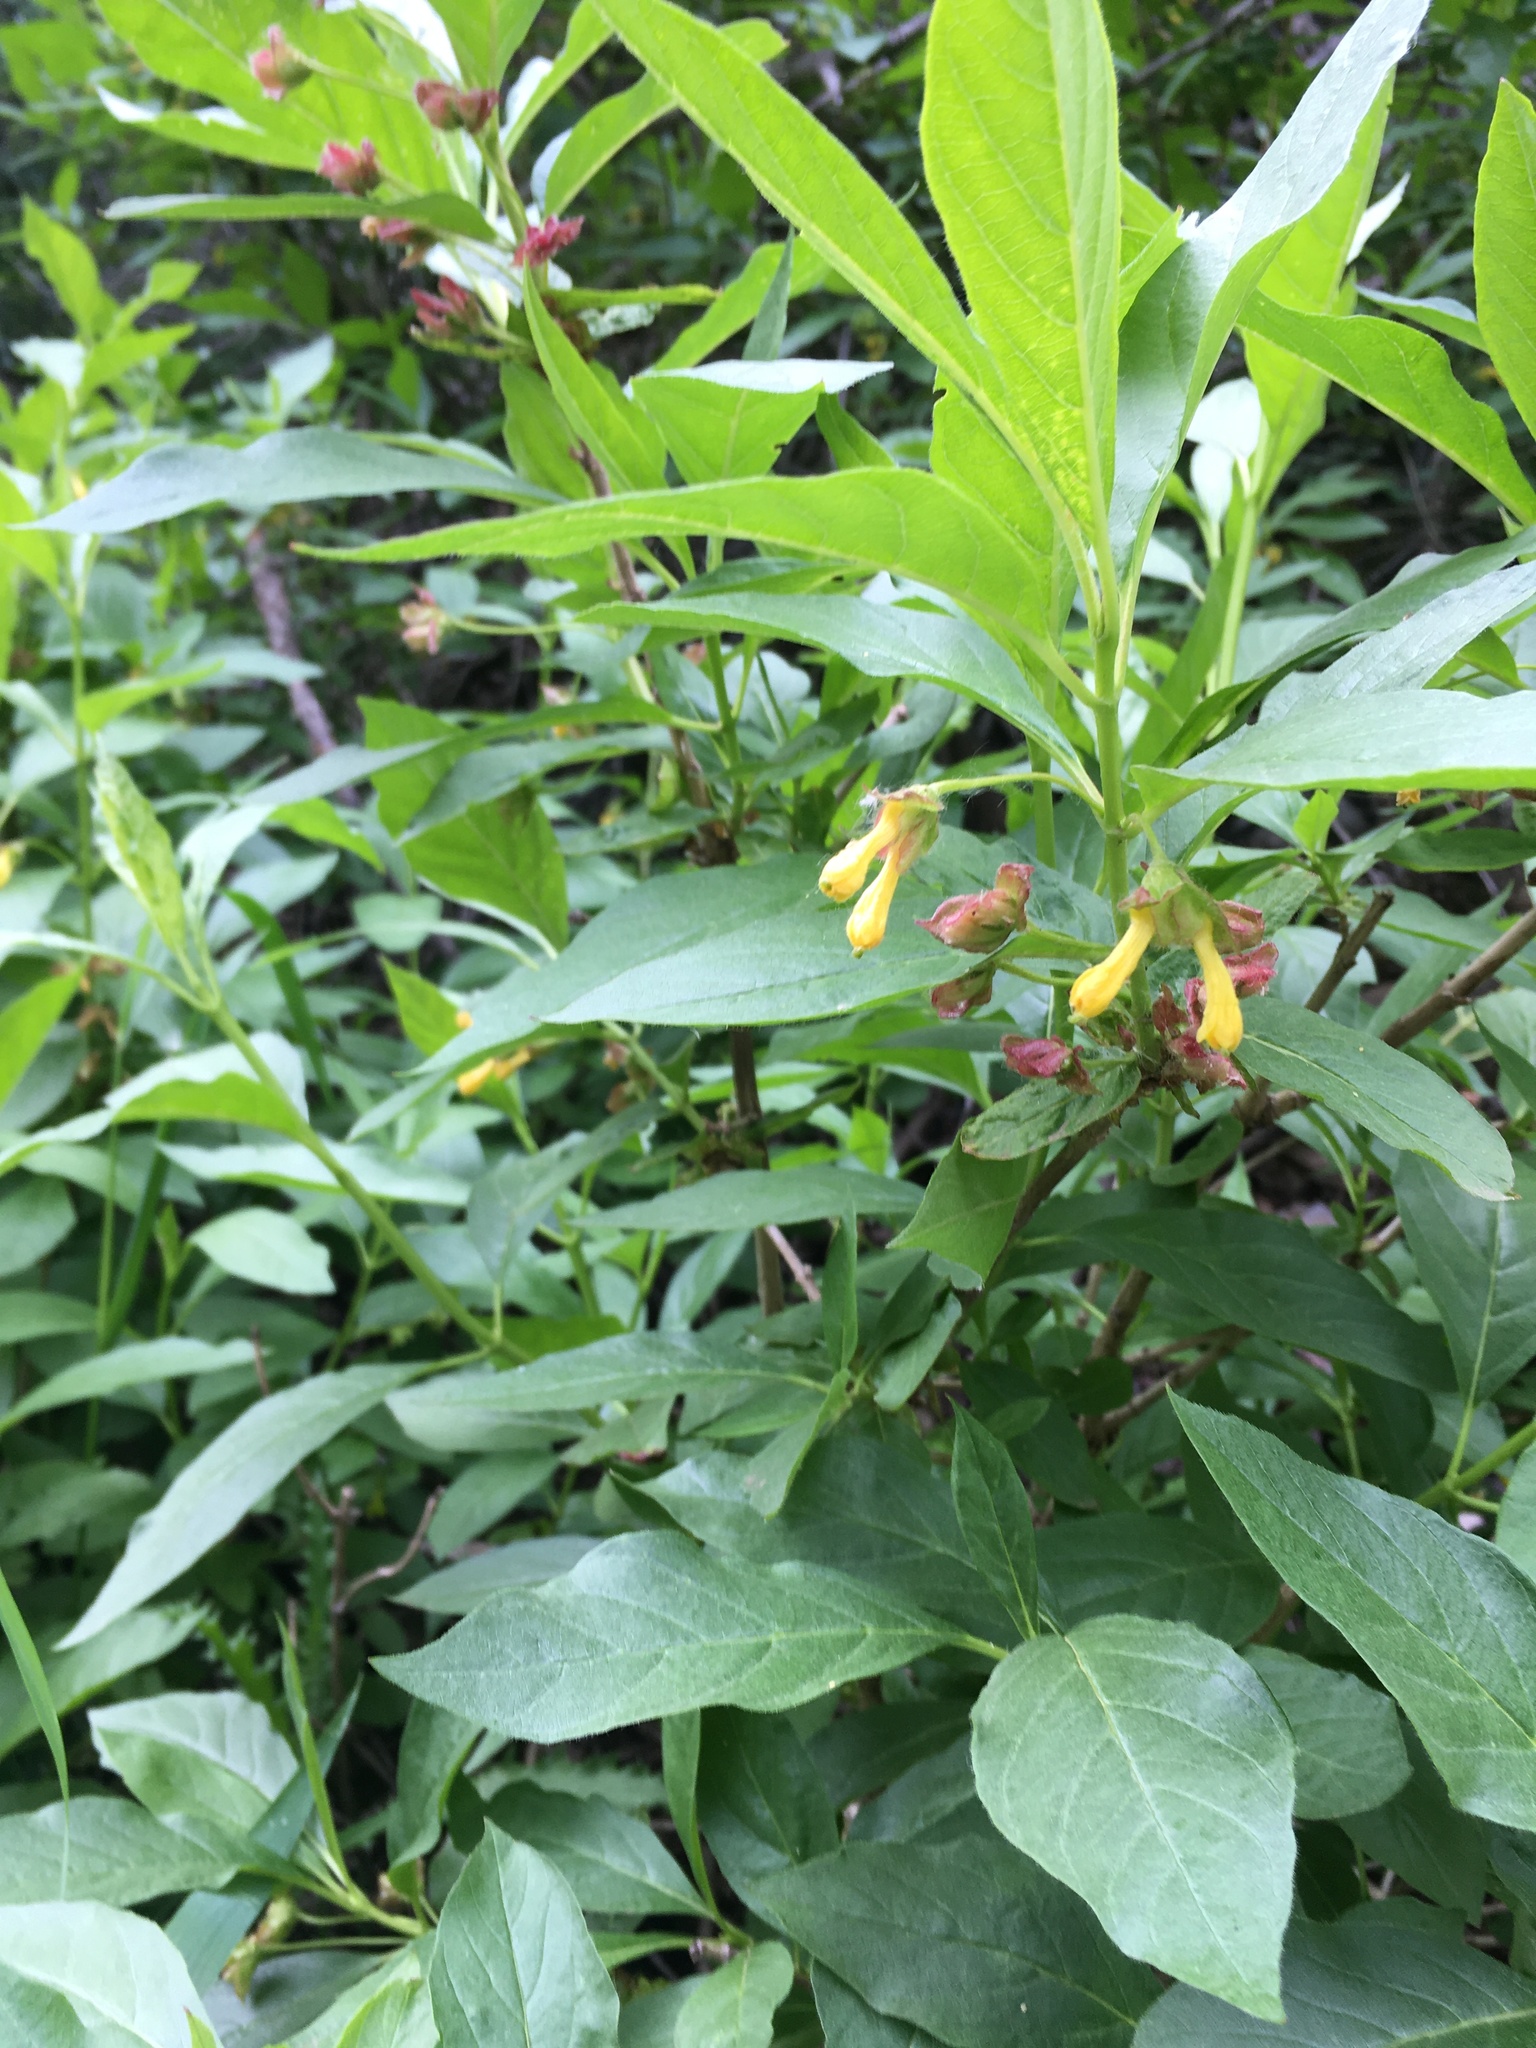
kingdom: Plantae
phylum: Tracheophyta
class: Magnoliopsida
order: Dipsacales
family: Caprifoliaceae
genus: Lonicera
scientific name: Lonicera involucrata
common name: Californian honeysuckle
